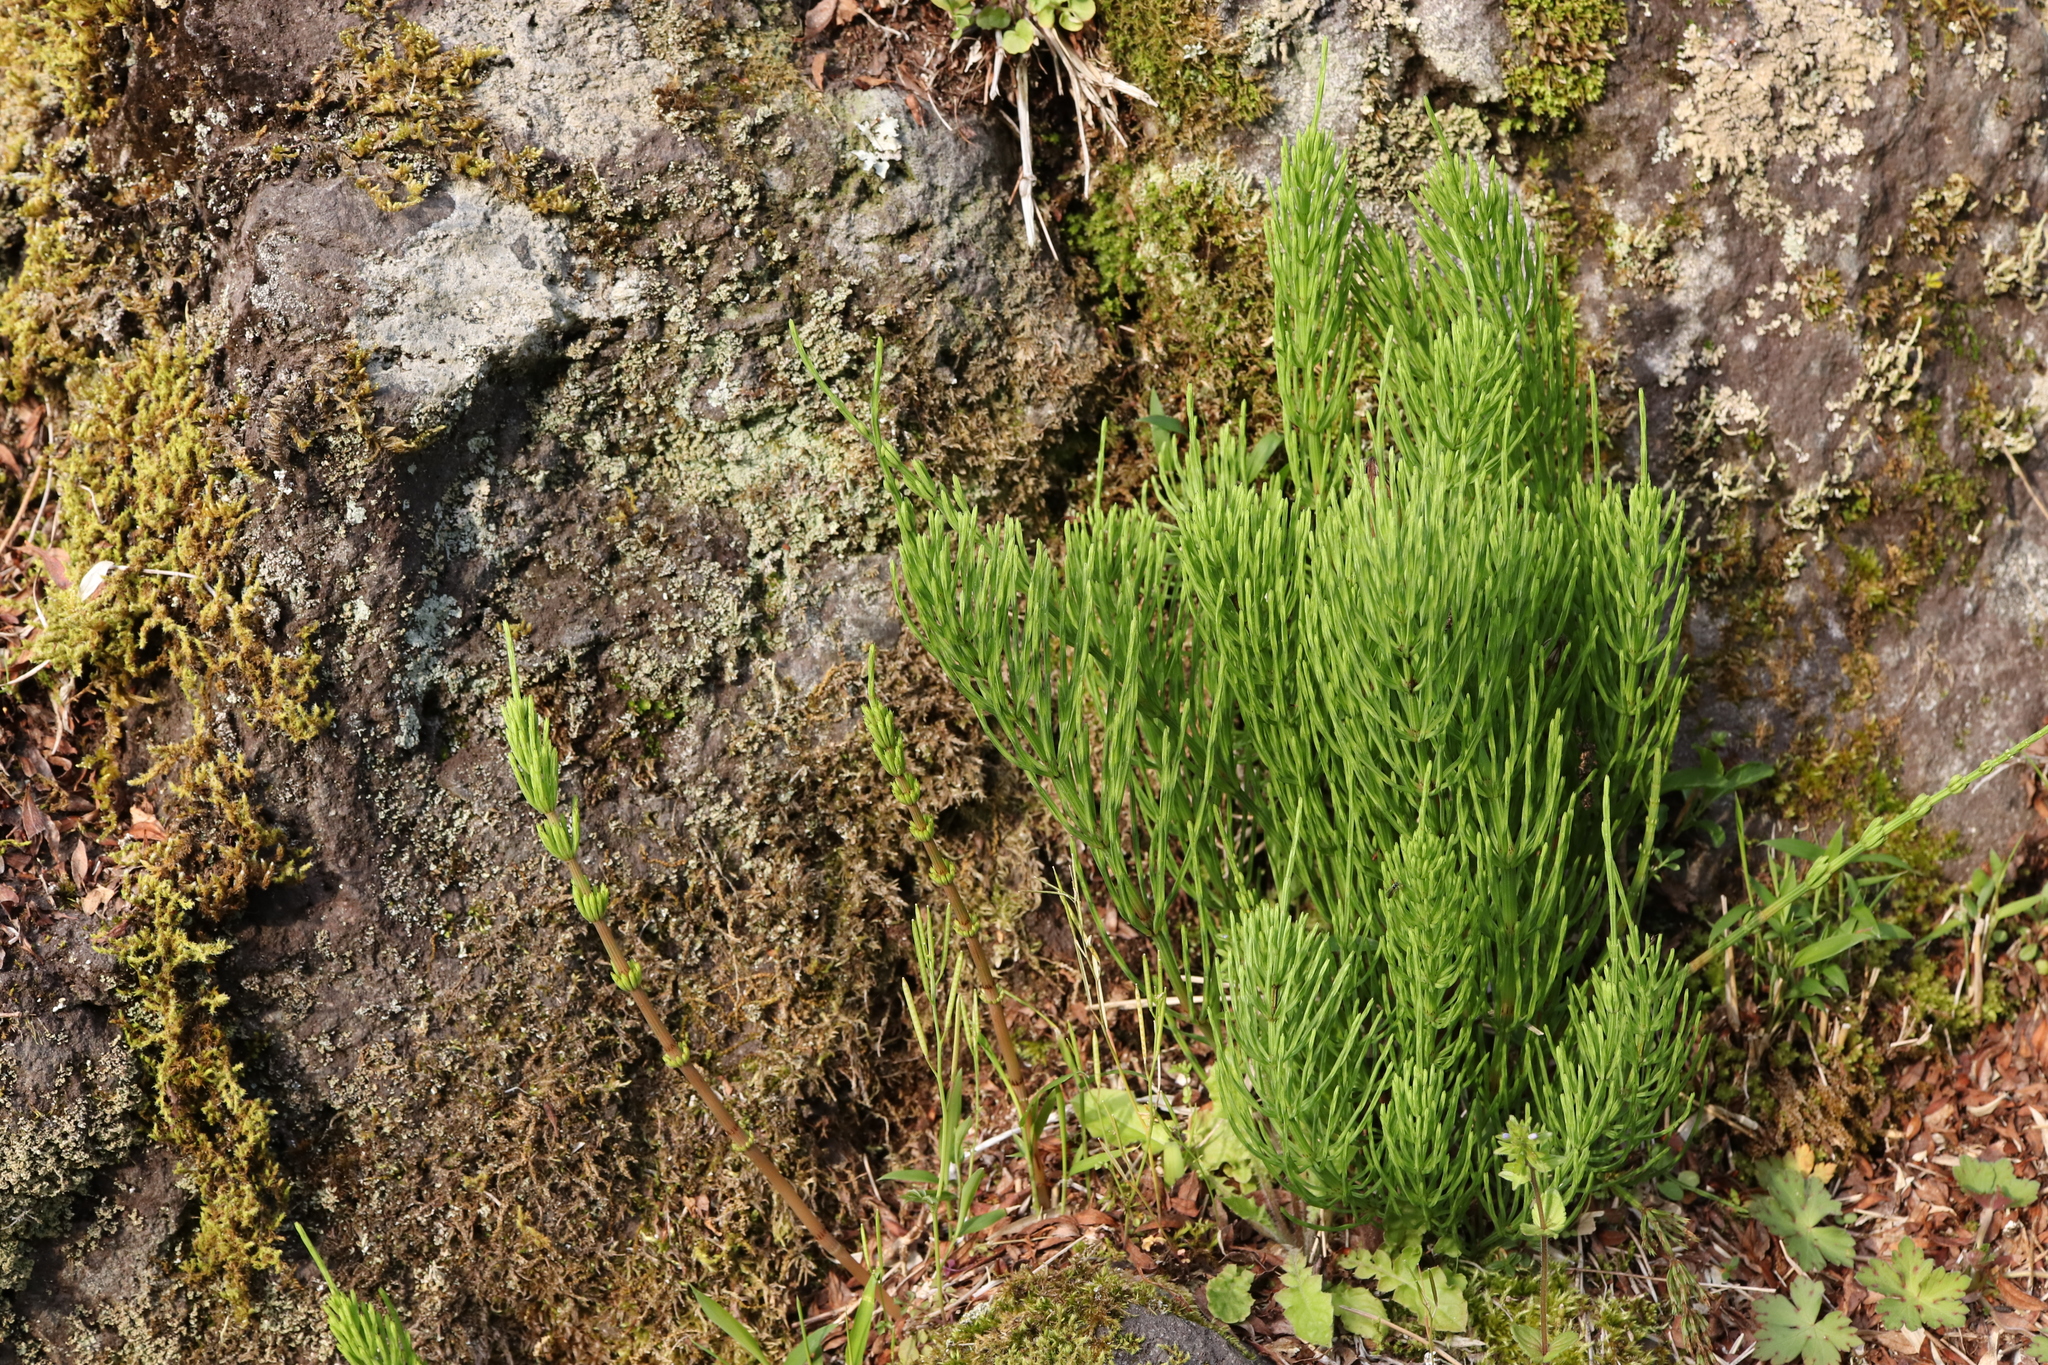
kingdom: Plantae
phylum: Tracheophyta
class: Polypodiopsida
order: Equisetales
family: Equisetaceae
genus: Equisetum
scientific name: Equisetum arvense
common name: Field horsetail
